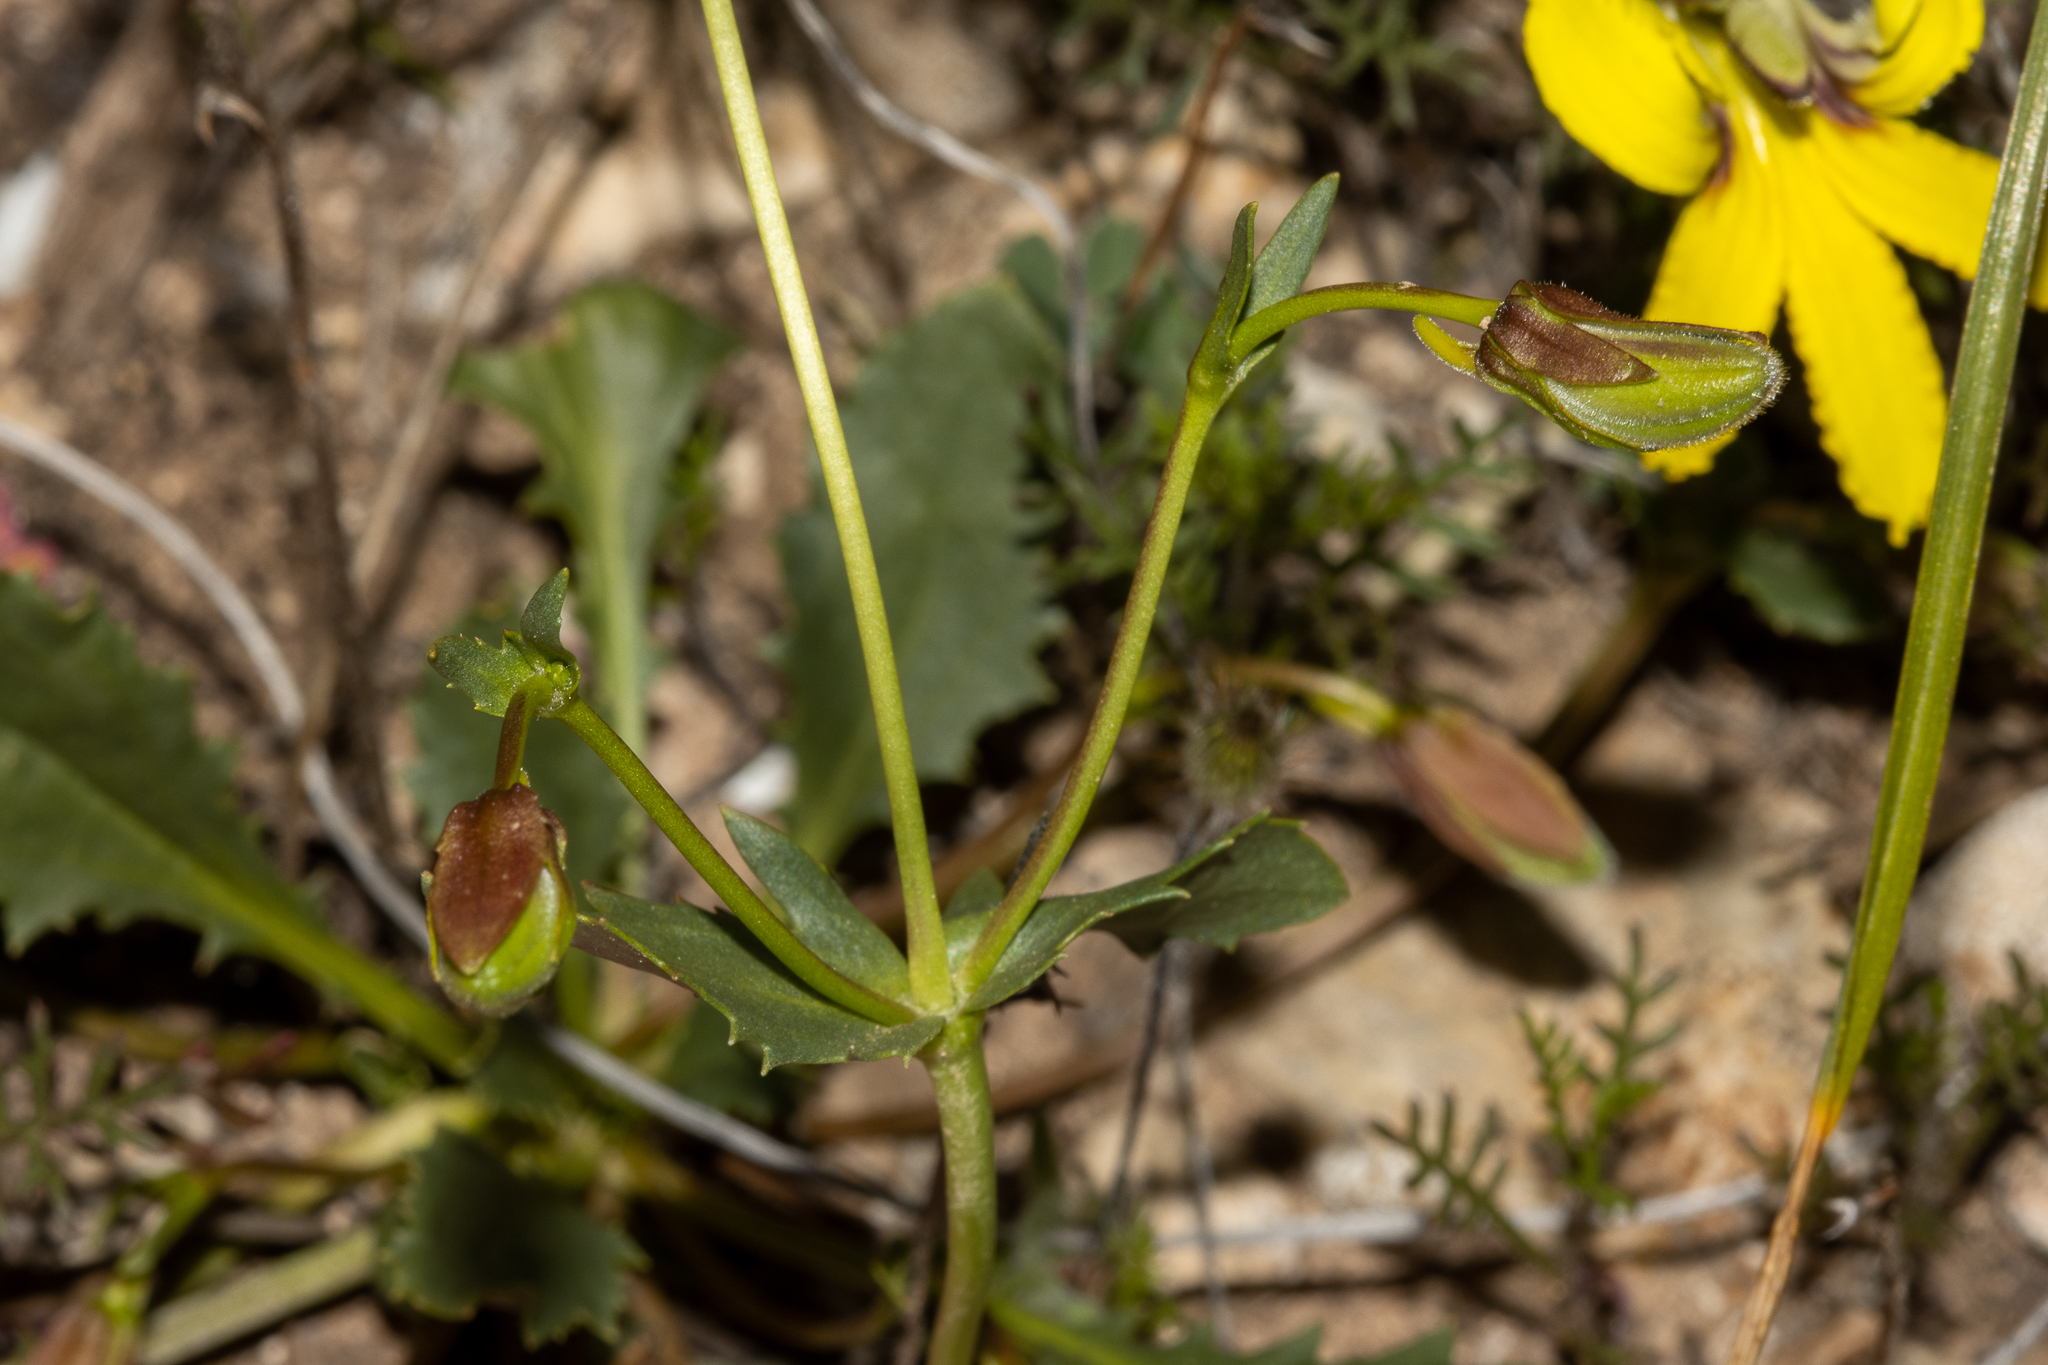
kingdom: Plantae
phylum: Tracheophyta
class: Magnoliopsida
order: Asterales
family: Goodeniaceae
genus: Goodenia
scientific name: Goodenia arguta
